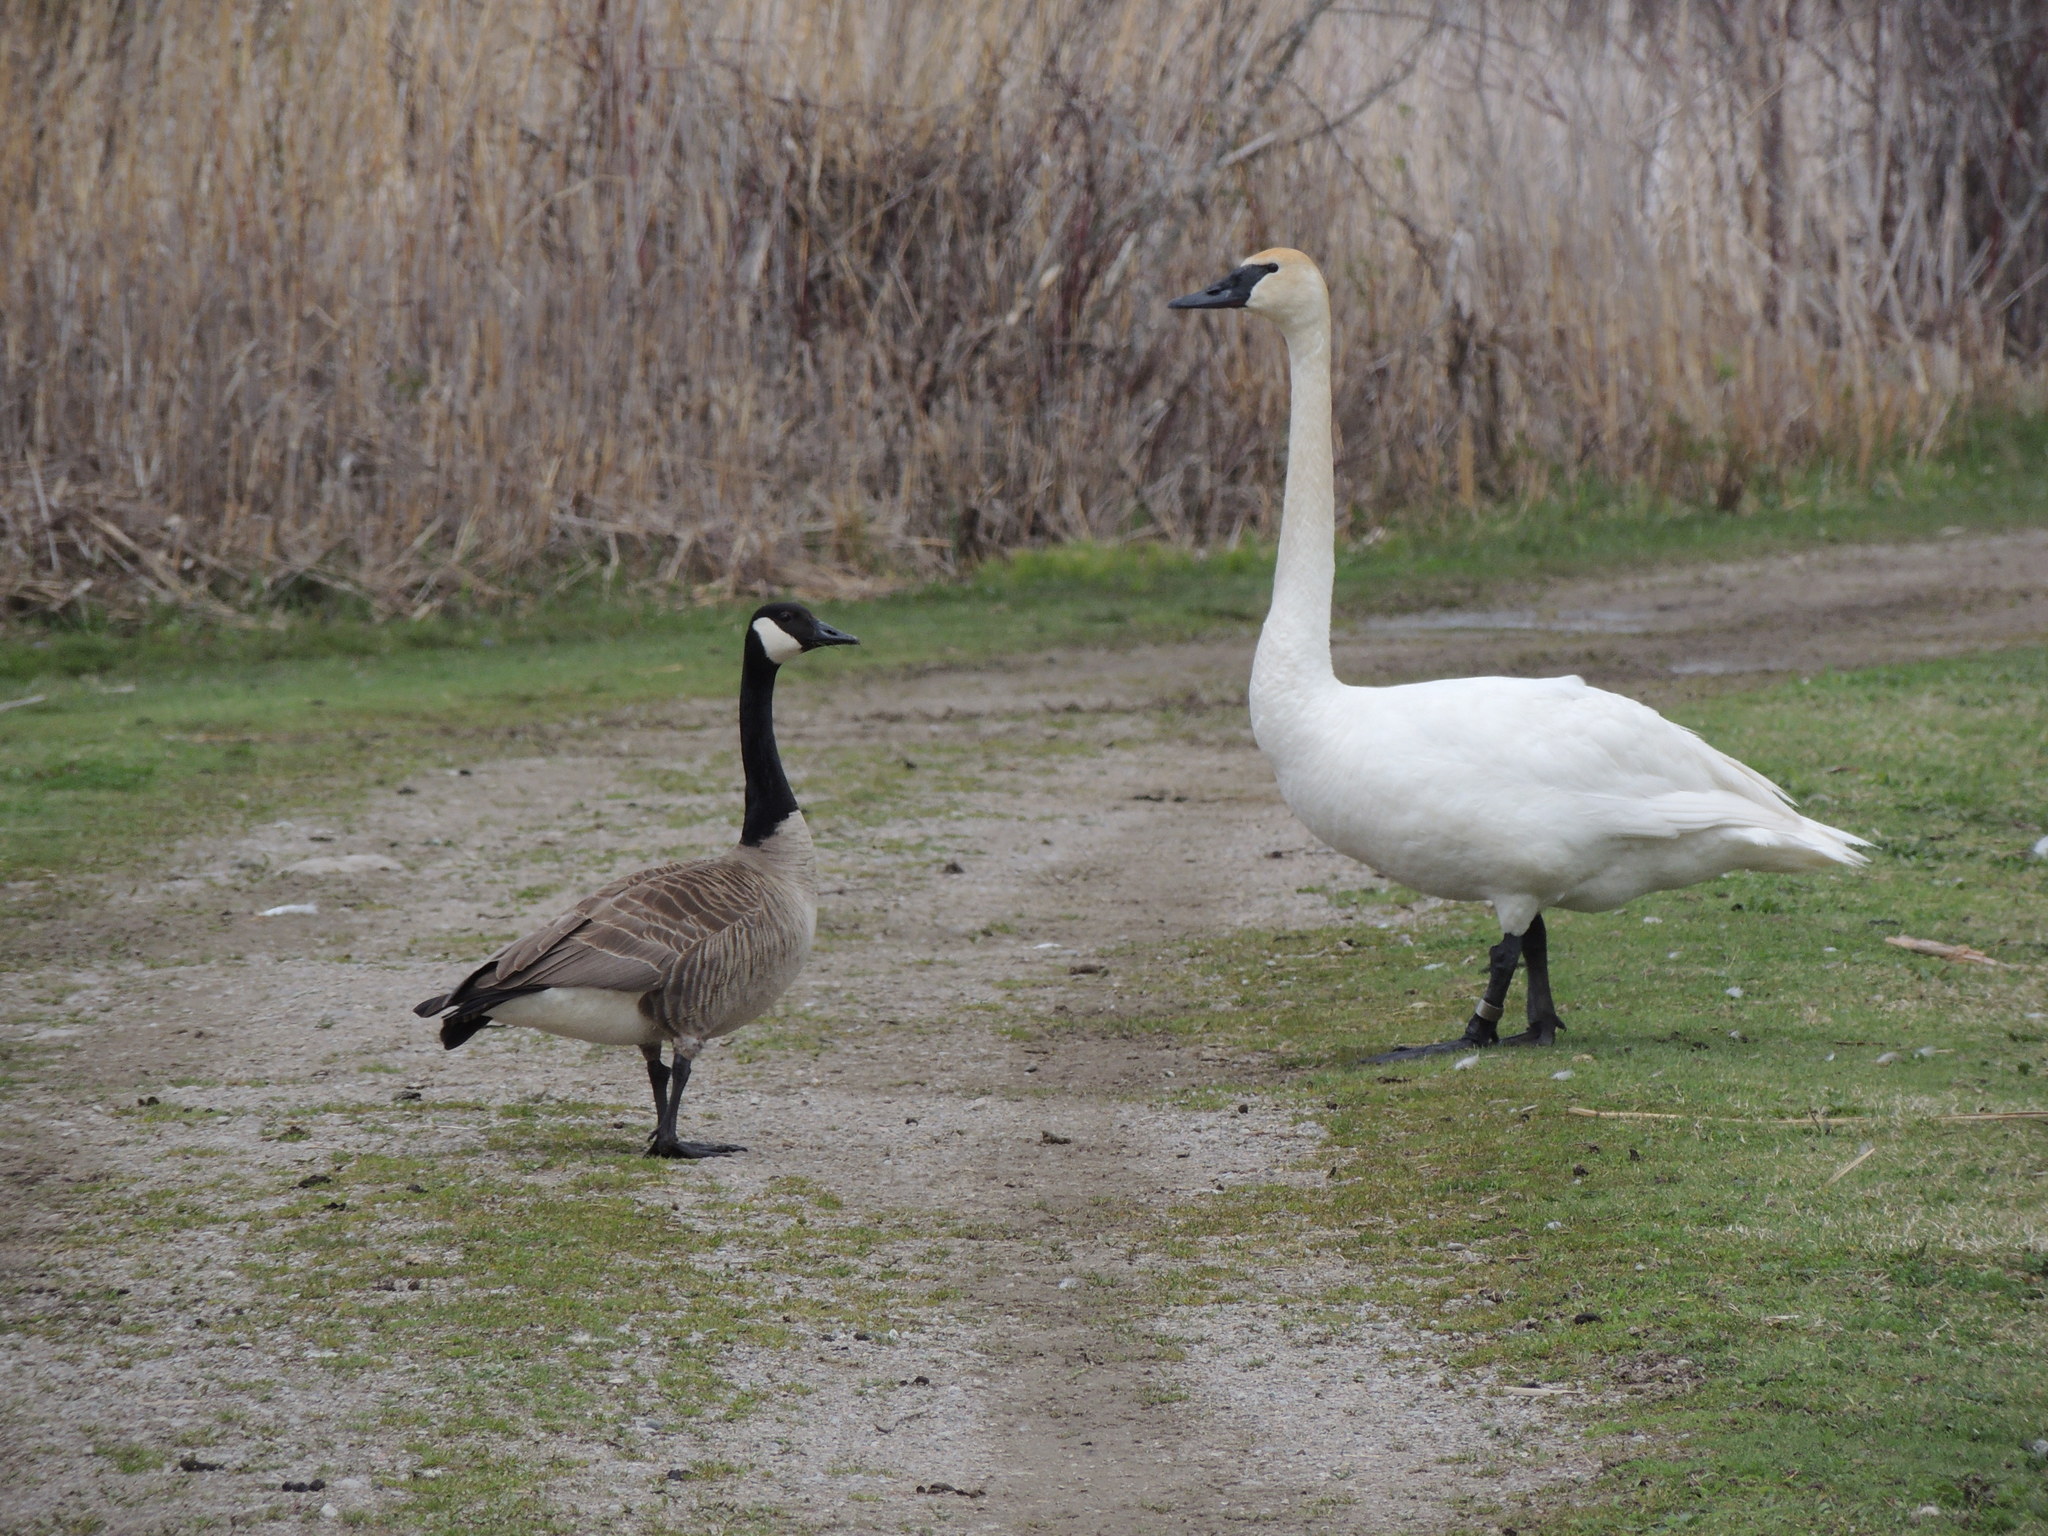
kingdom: Animalia
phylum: Chordata
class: Aves
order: Anseriformes
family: Anatidae
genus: Branta
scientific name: Branta canadensis
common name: Canada goose
